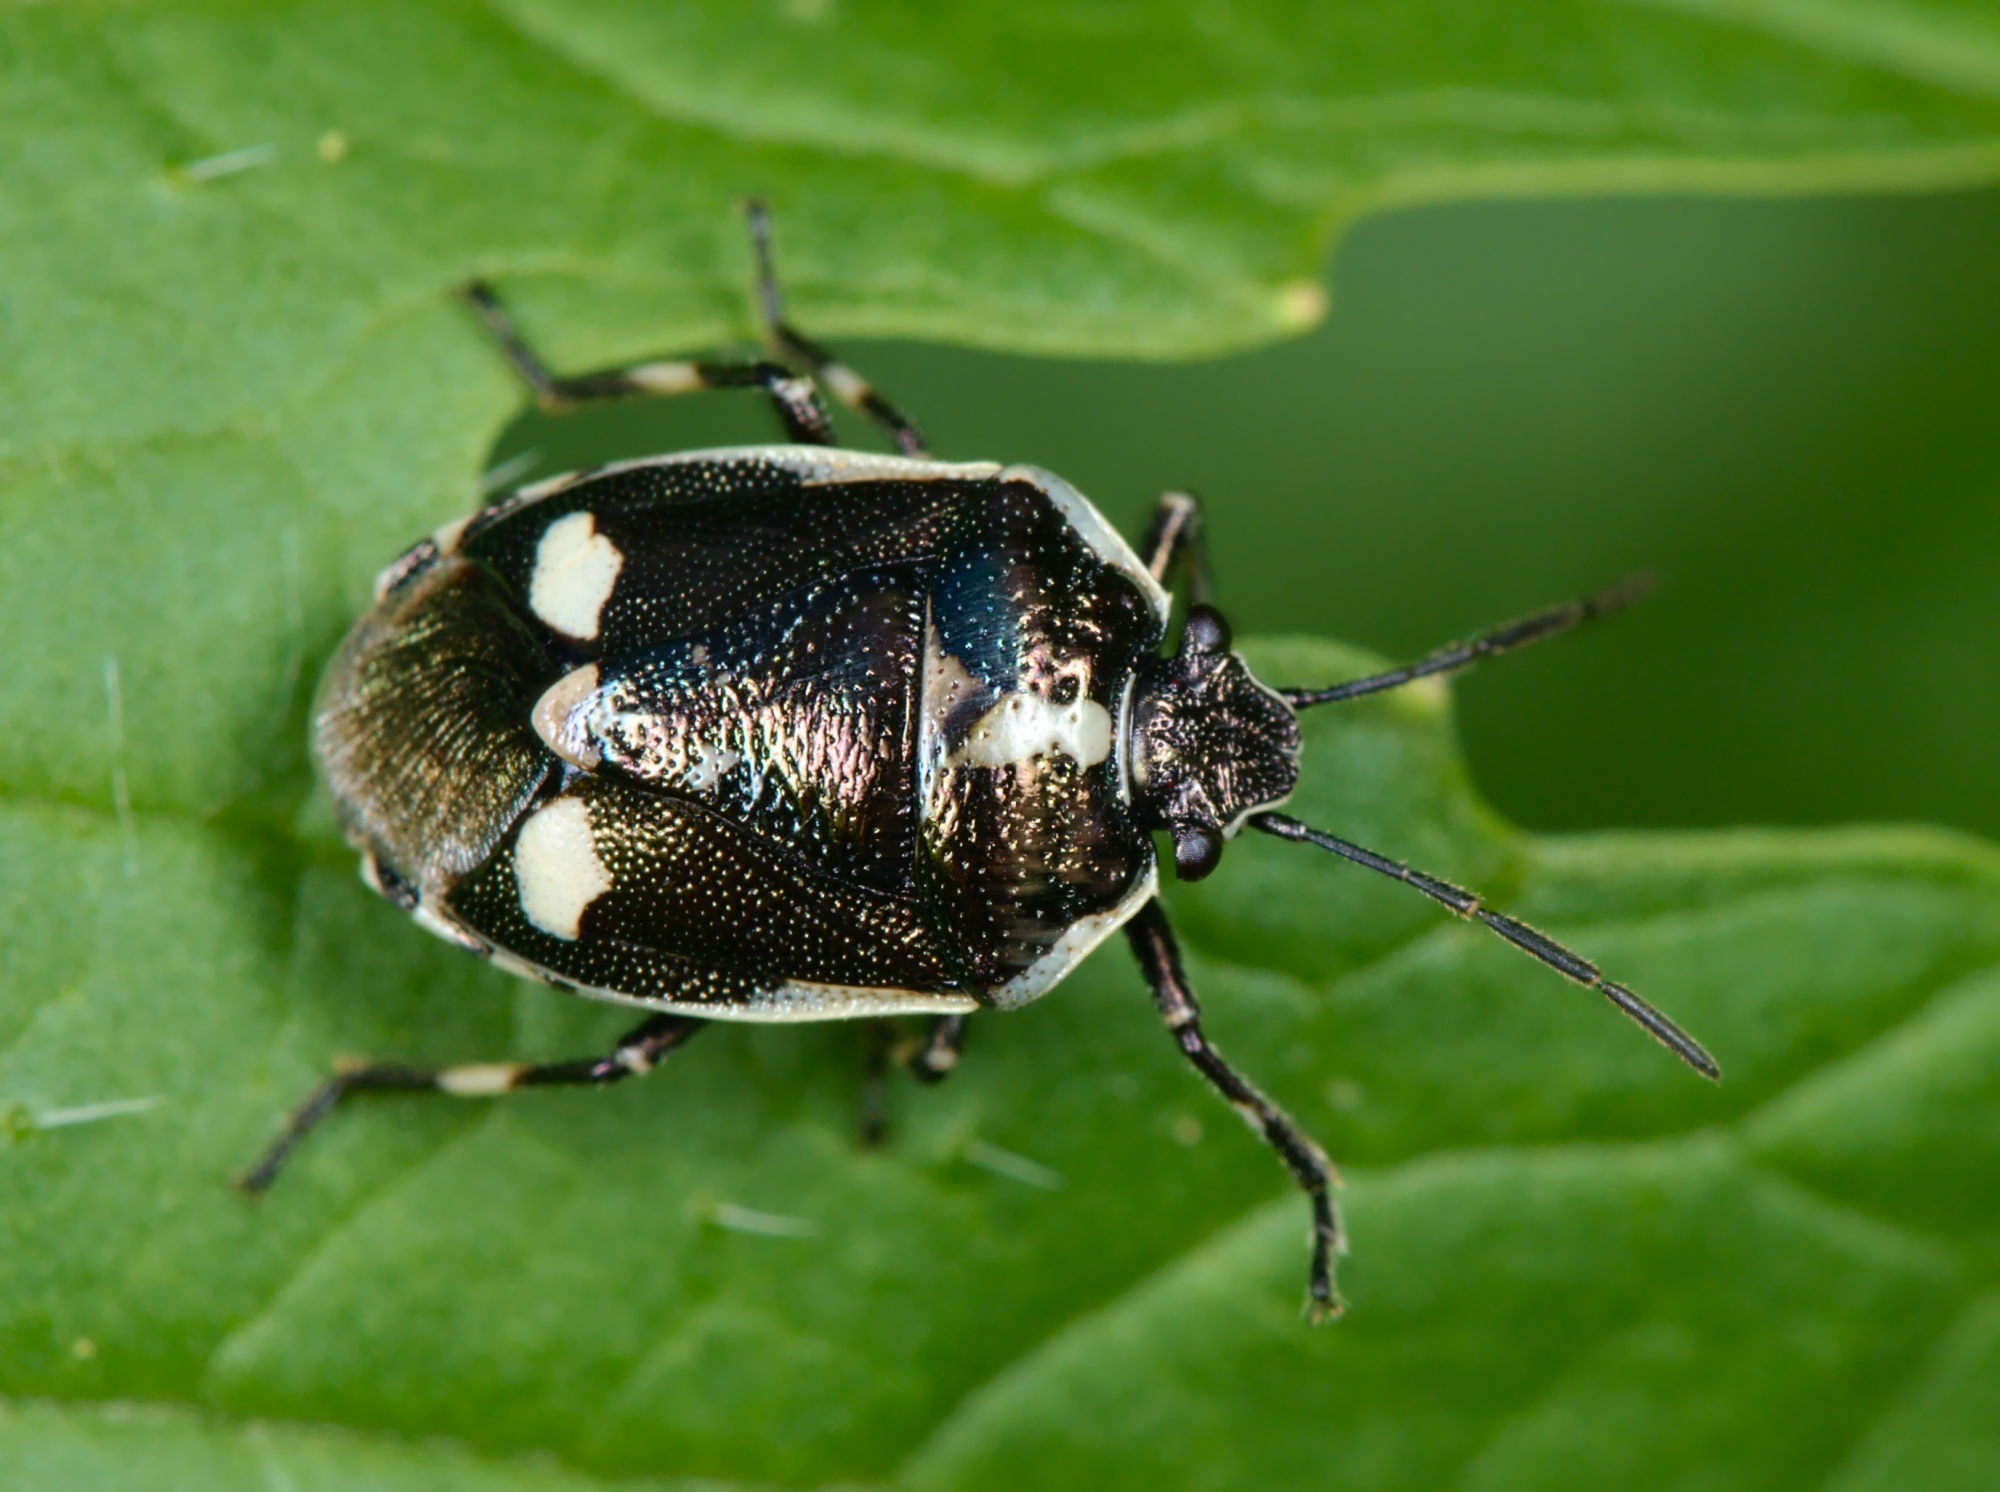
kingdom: Animalia
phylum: Arthropoda
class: Insecta
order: Hemiptera
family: Pentatomidae
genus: Eurydema
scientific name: Eurydema oleracea
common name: Cabbage bug
